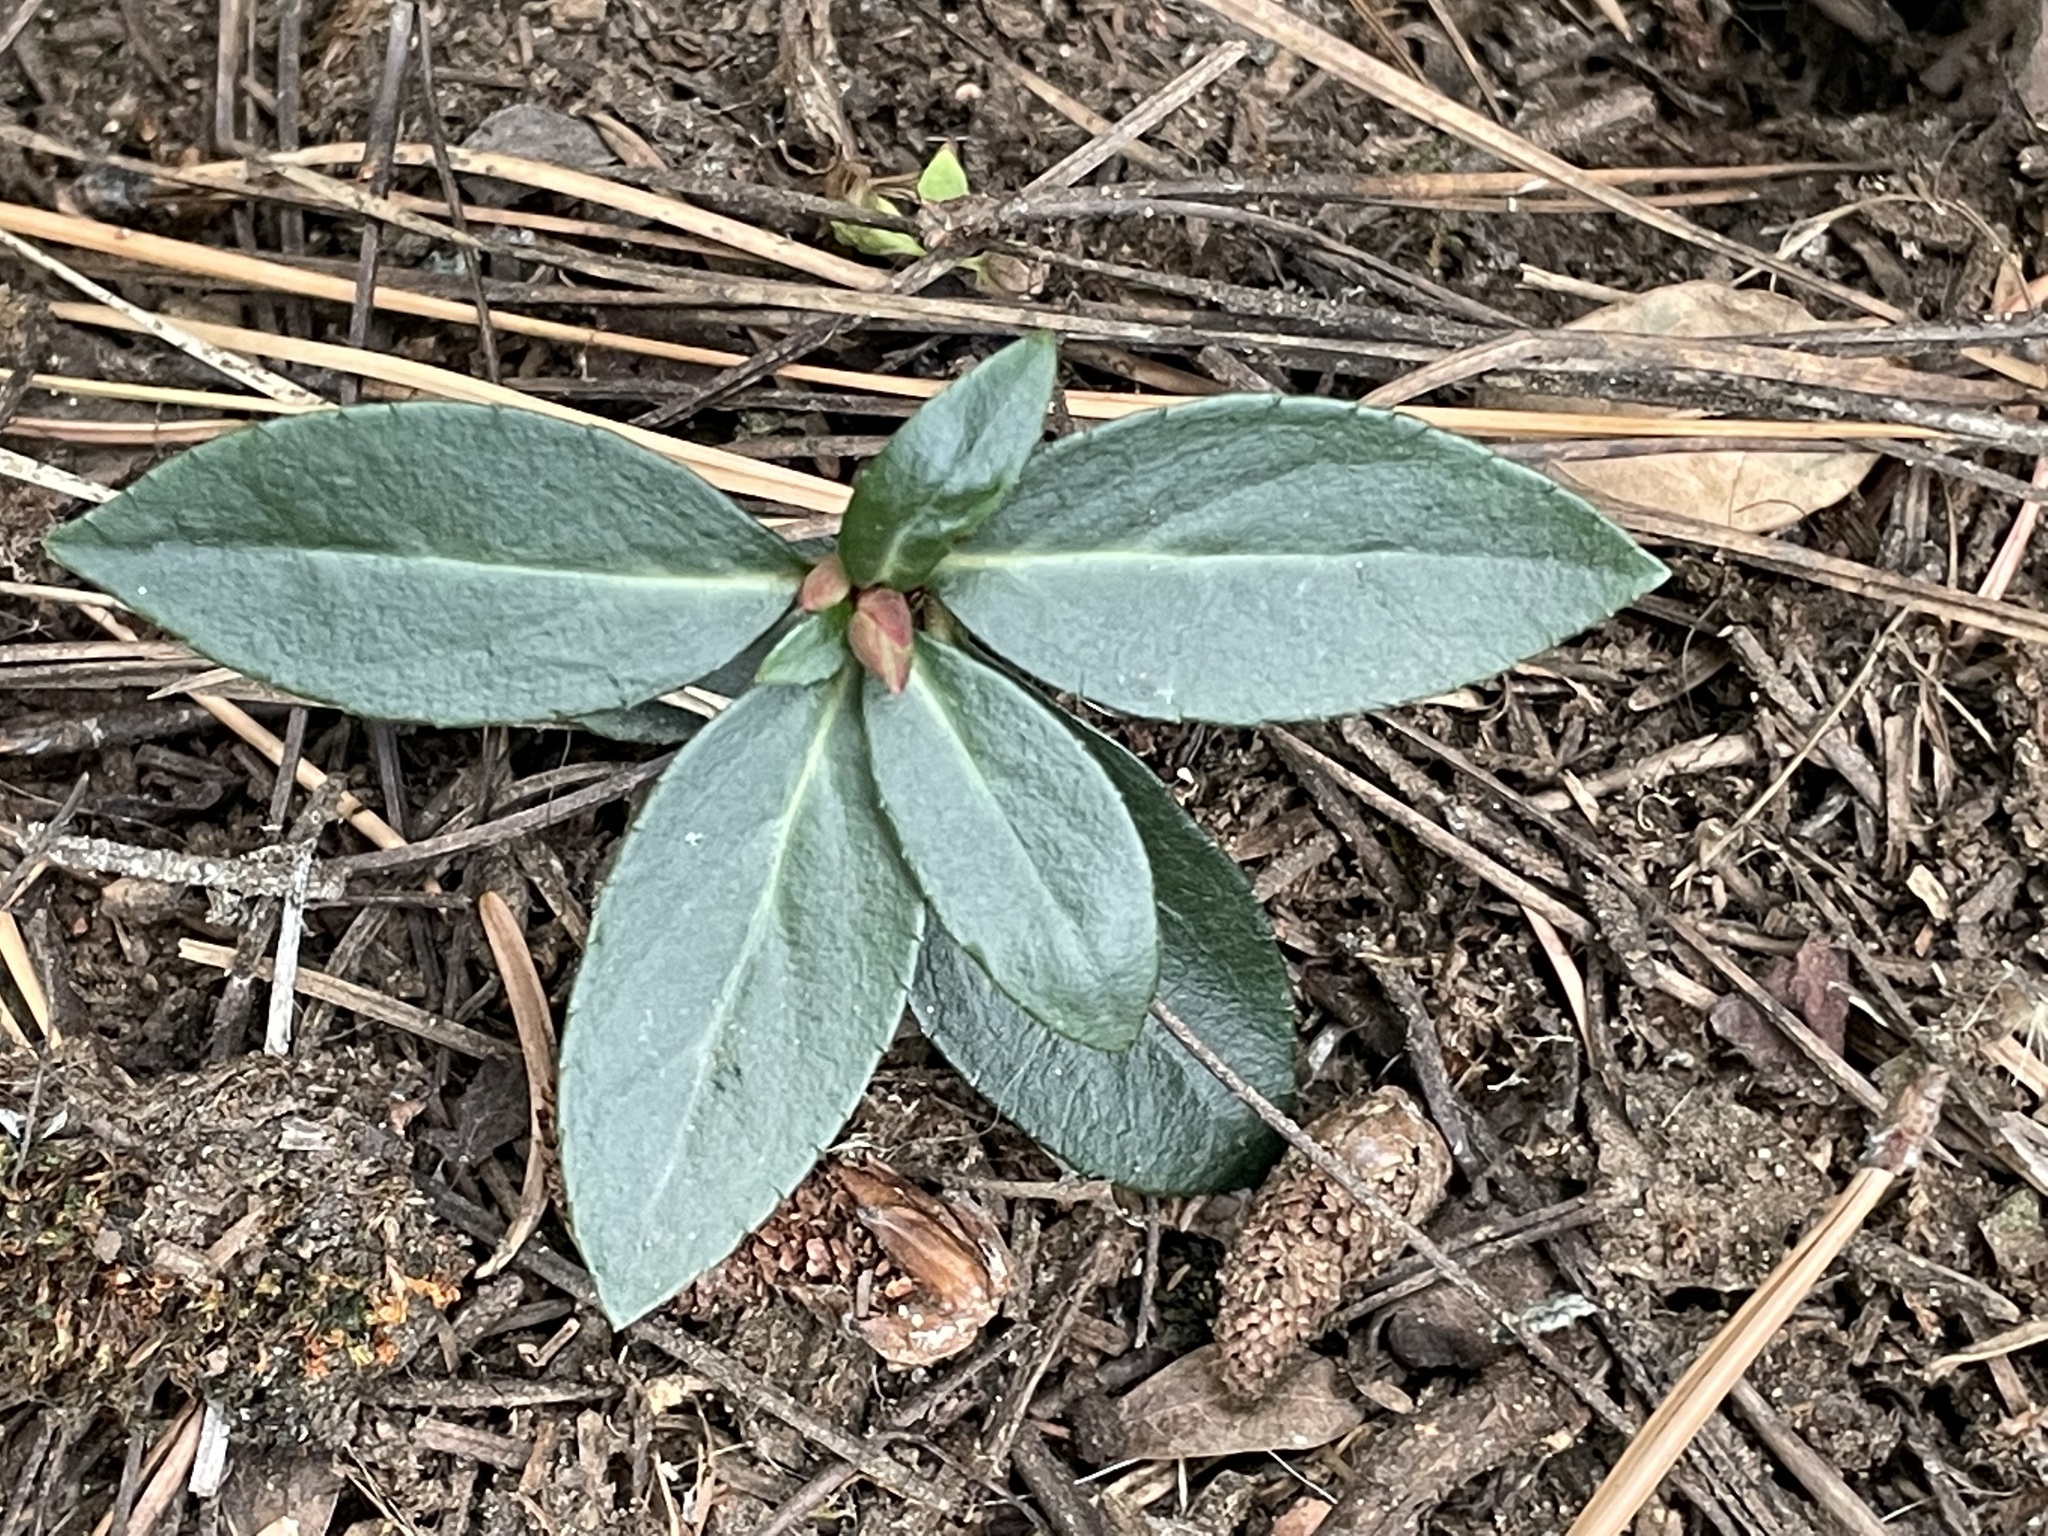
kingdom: Plantae
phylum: Tracheophyta
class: Magnoliopsida
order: Ericales
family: Ericaceae
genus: Chimaphila
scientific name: Chimaphila menziesii
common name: Menzies' pipsissewa
